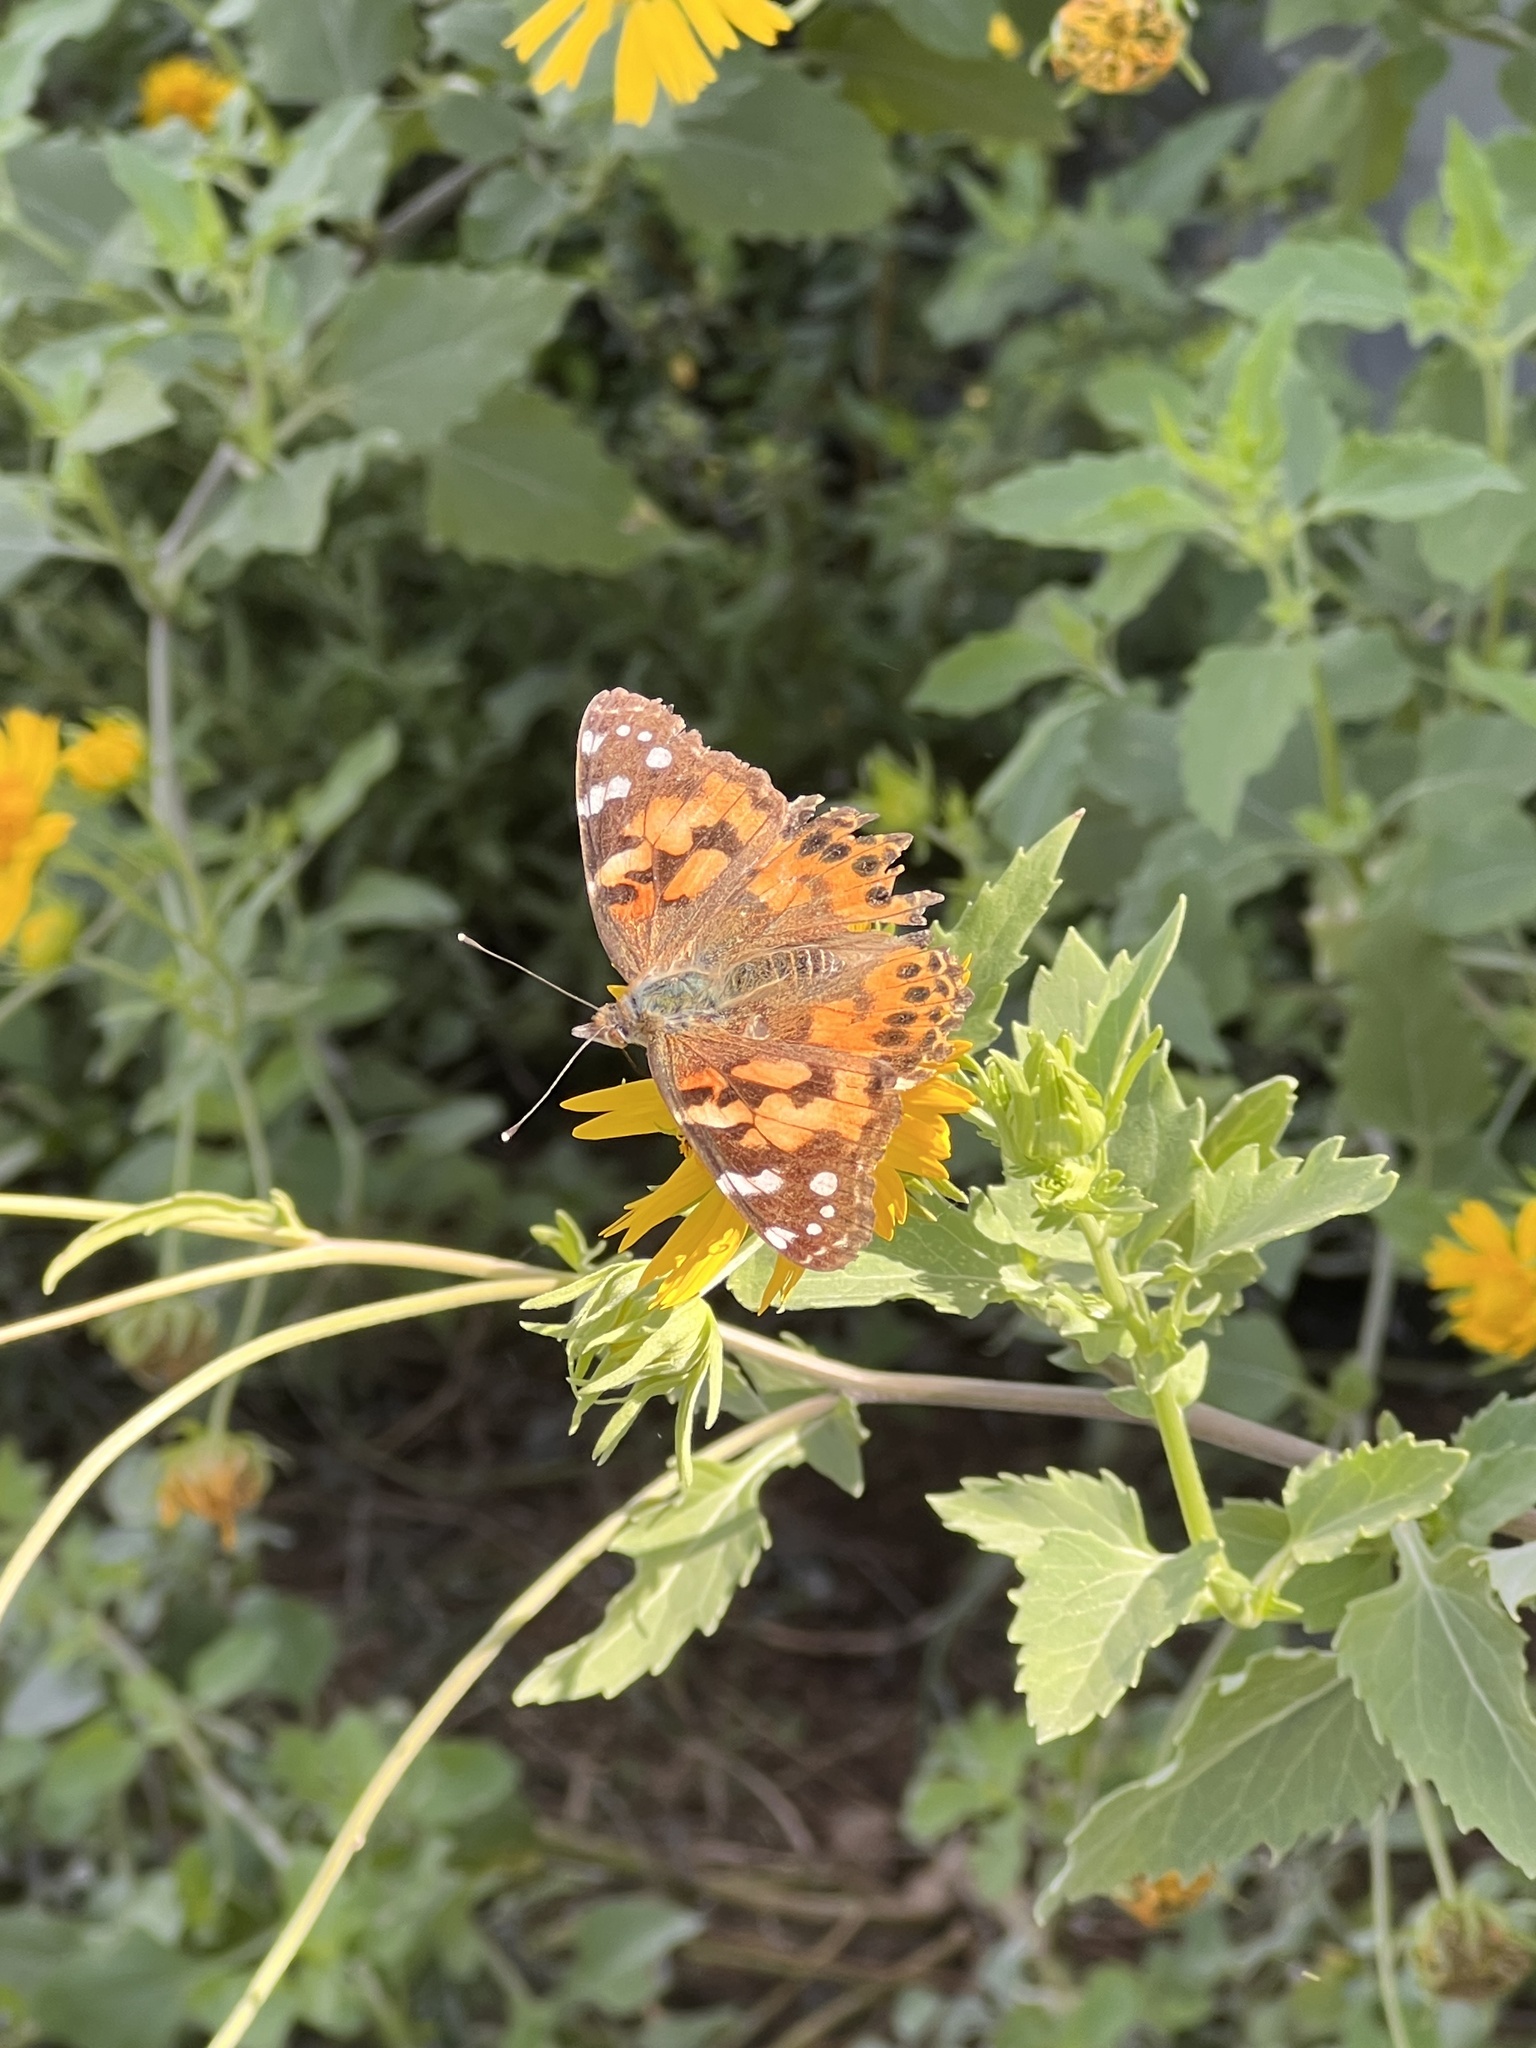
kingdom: Animalia
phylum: Arthropoda
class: Insecta
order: Lepidoptera
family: Nymphalidae
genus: Vanessa
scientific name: Vanessa cardui
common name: Painted lady
